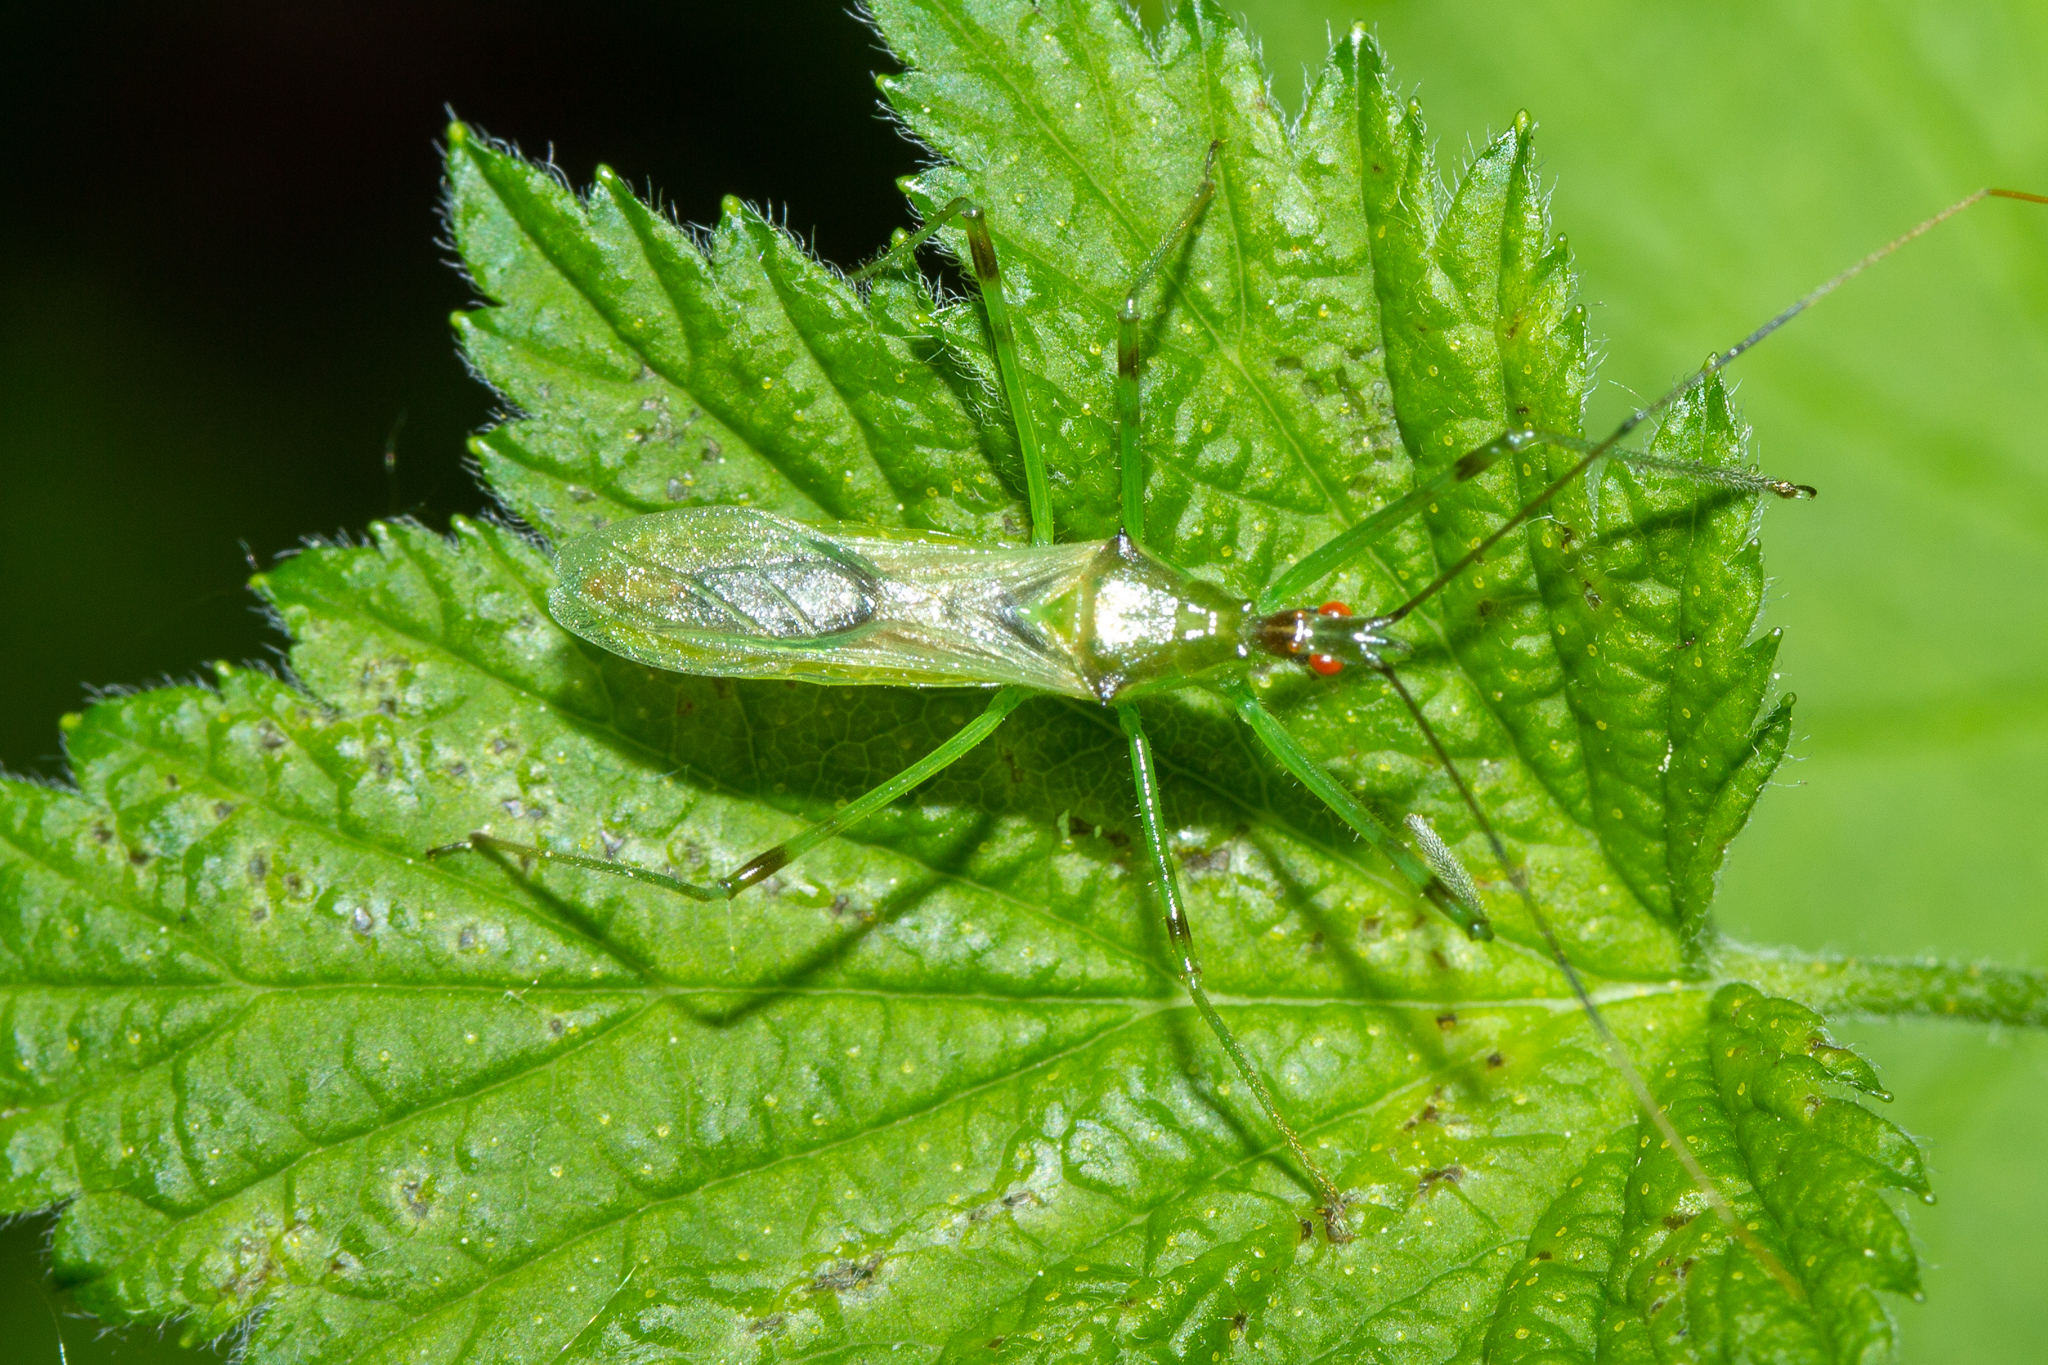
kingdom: Animalia
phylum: Arthropoda
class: Insecta
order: Hemiptera
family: Reduviidae
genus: Zelus
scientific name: Zelus luridus
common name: Pale green assassin bug
